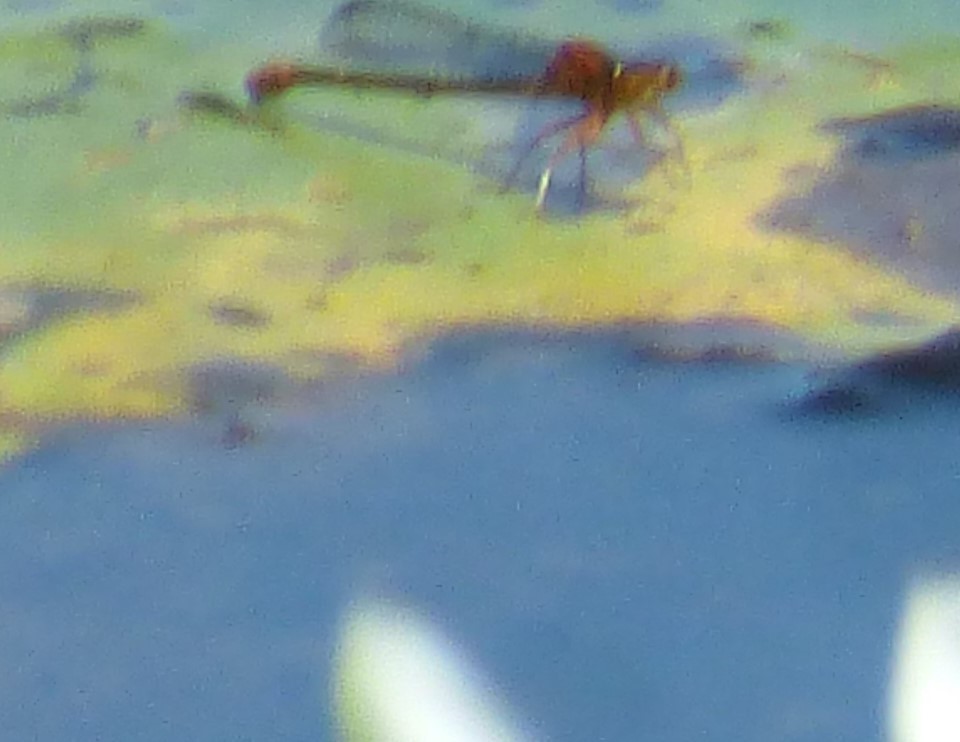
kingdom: Animalia
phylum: Arthropoda
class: Insecta
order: Odonata
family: Coenagrionidae
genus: Ischnura
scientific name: Ischnura kellicotti
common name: Lilypad forktail
